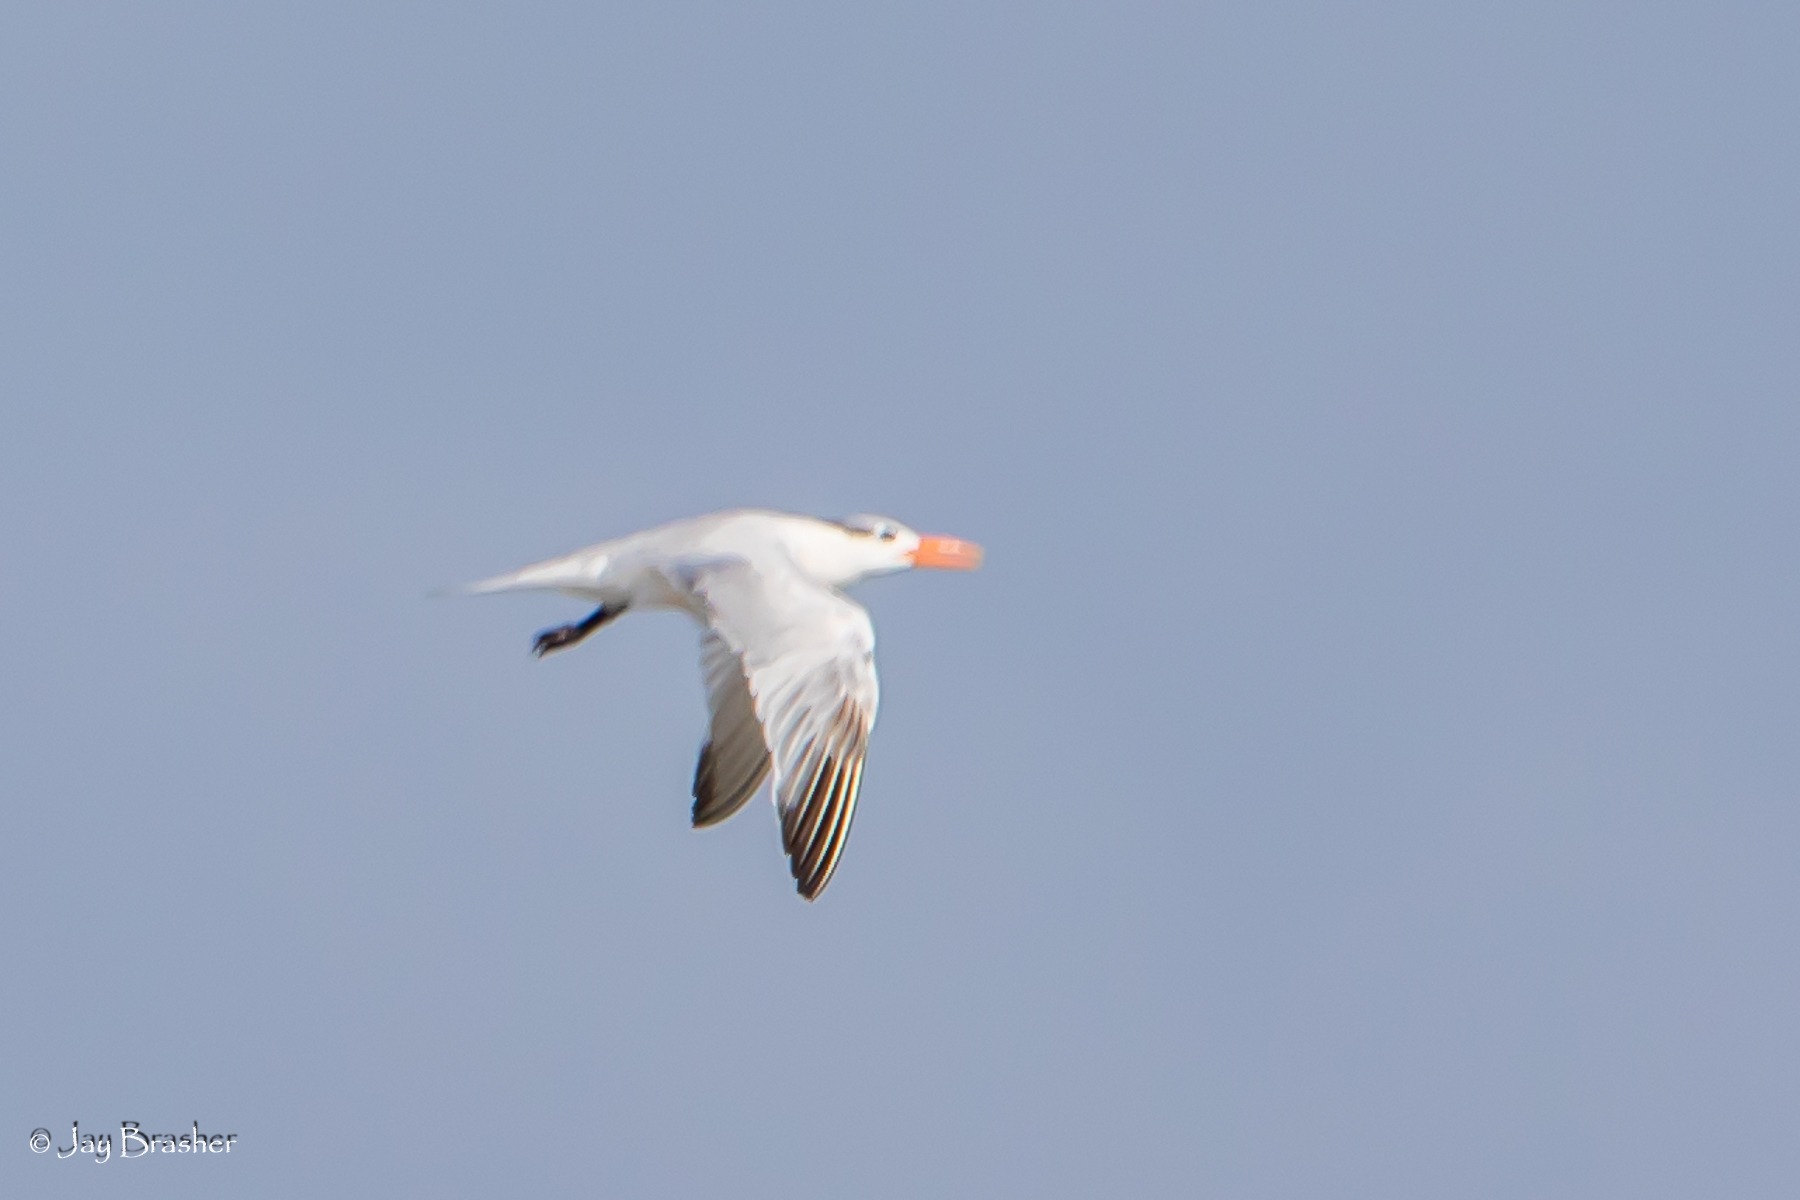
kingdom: Animalia
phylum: Chordata
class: Aves
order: Charadriiformes
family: Laridae
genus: Thalasseus
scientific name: Thalasseus maximus
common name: Royal tern
